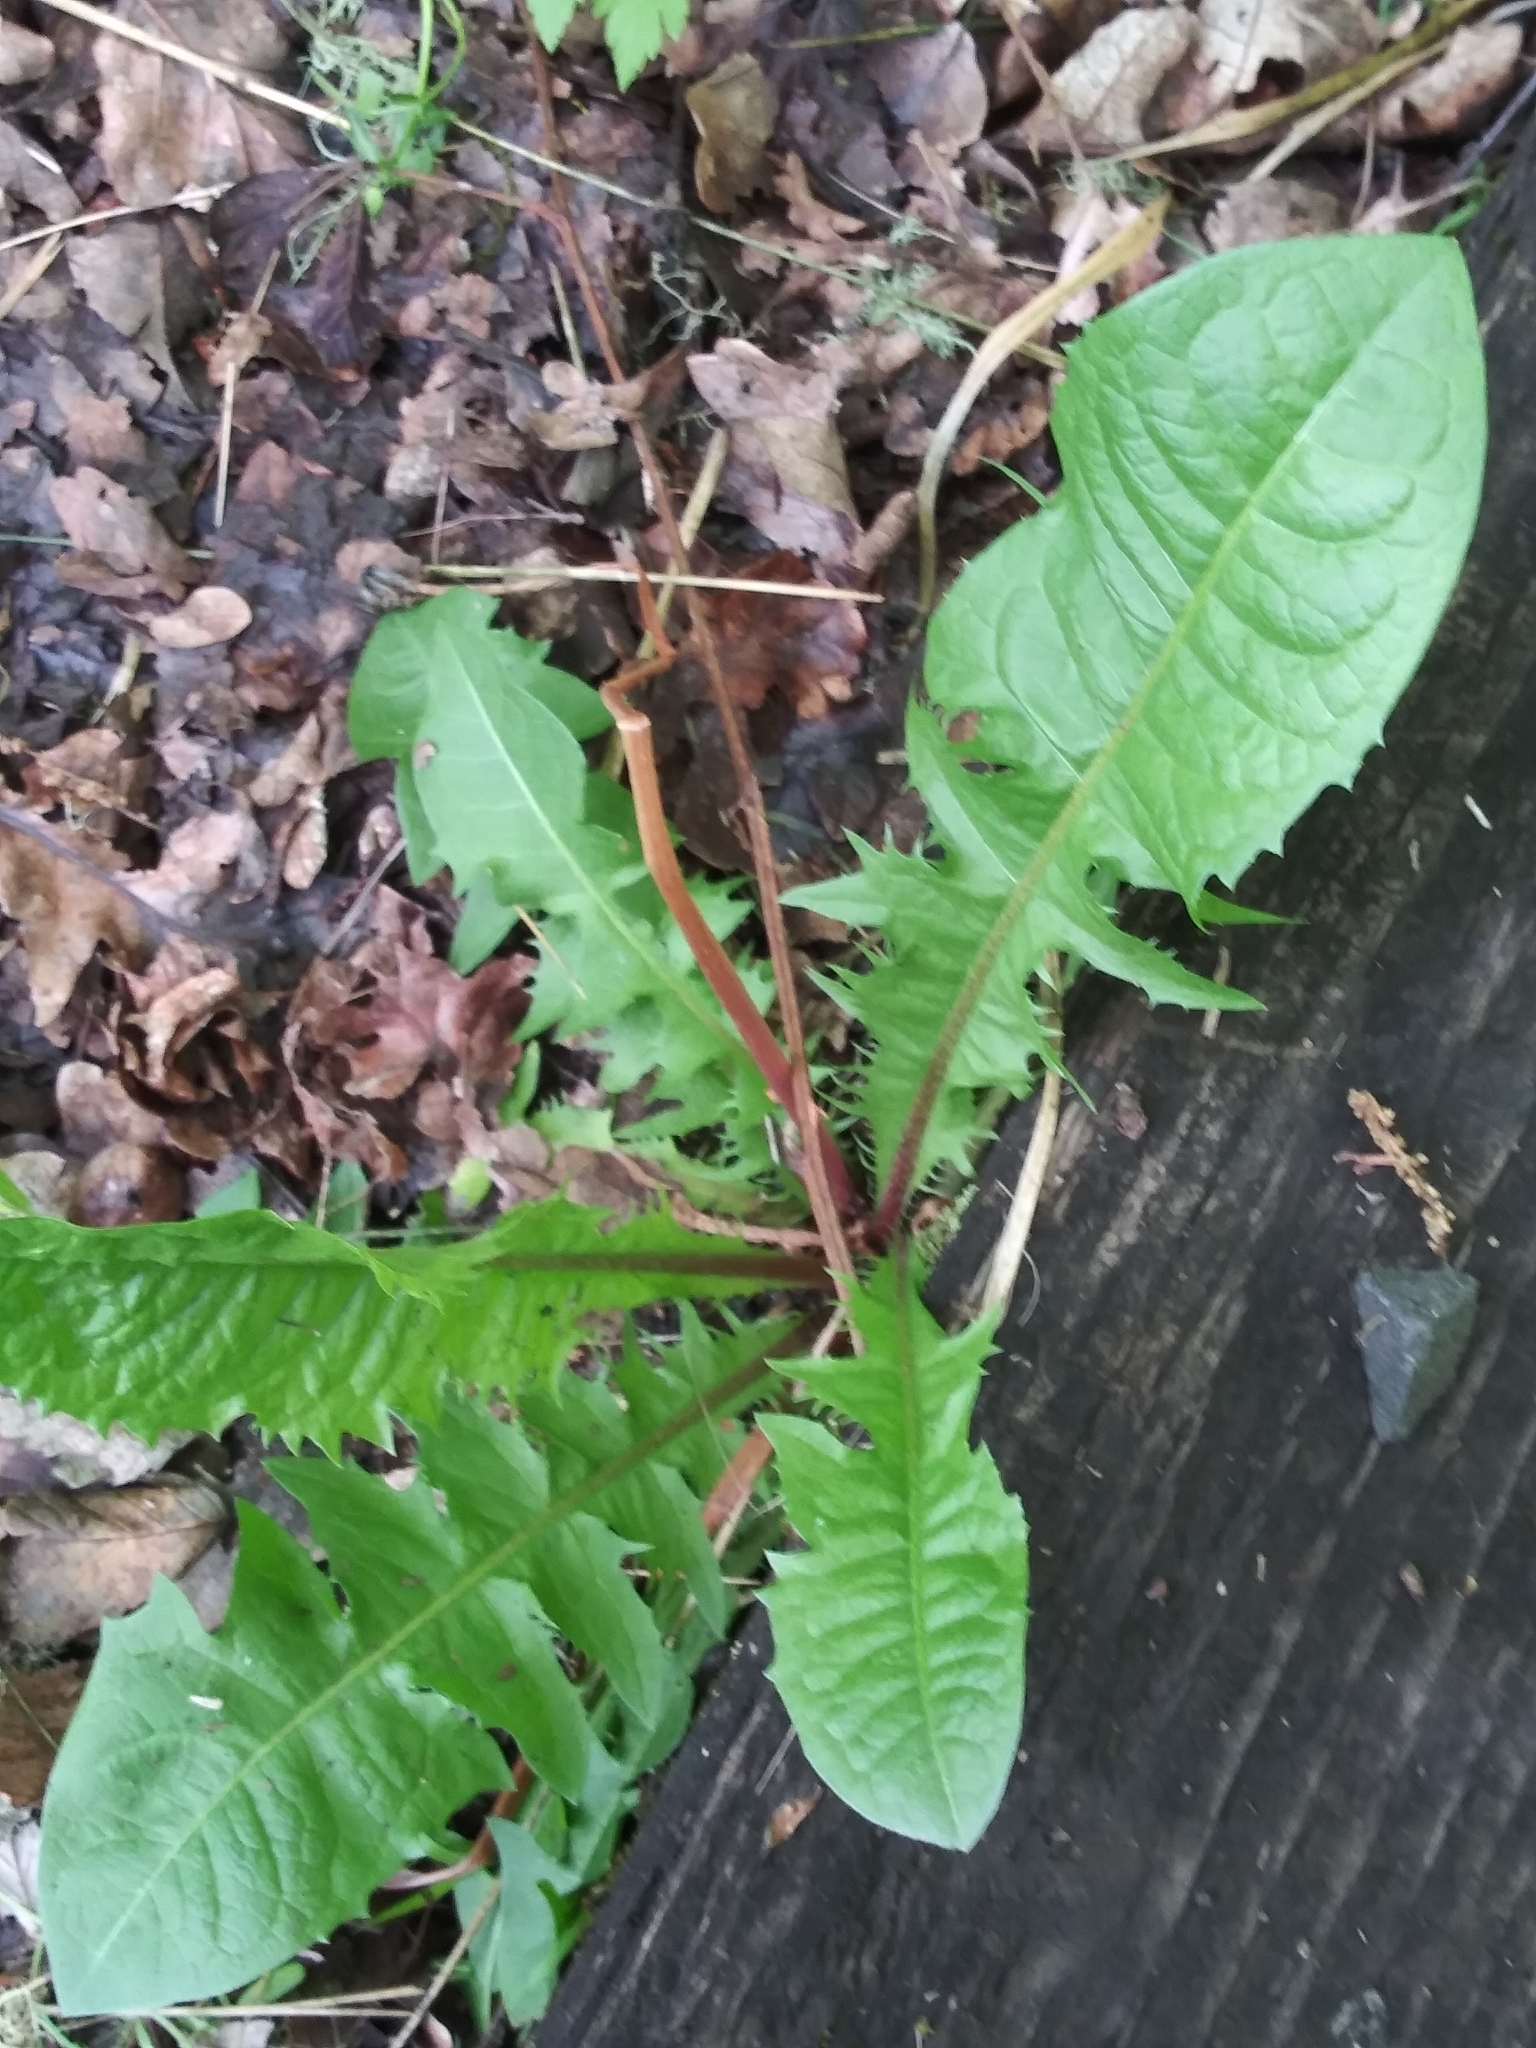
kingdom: Plantae
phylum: Tracheophyta
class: Magnoliopsida
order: Asterales
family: Asteraceae
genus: Taraxacum
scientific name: Taraxacum officinale
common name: Common dandelion
